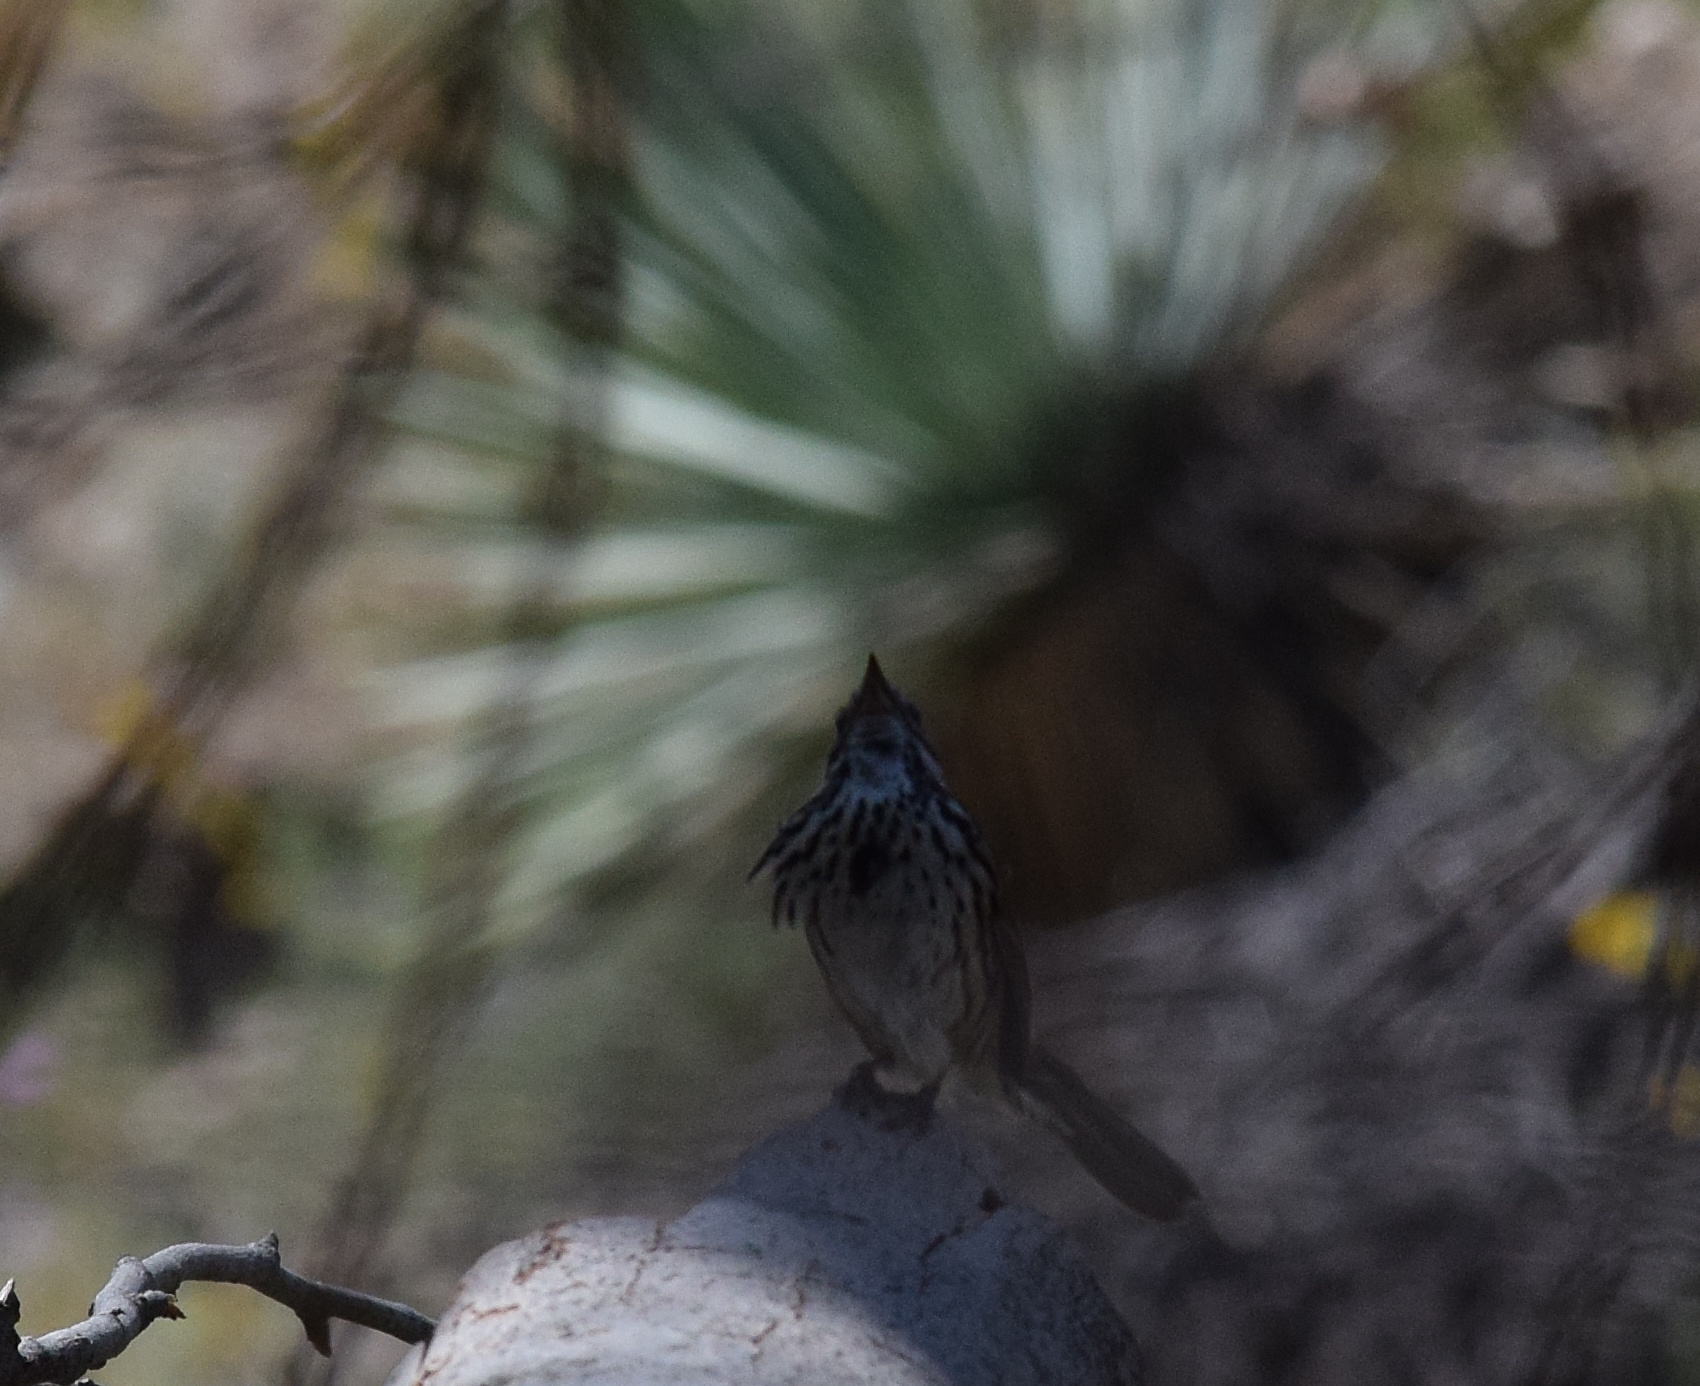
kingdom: Animalia
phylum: Chordata
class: Aves
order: Passeriformes
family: Passerellidae
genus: Melospiza
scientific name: Melospiza melodia
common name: Song sparrow
